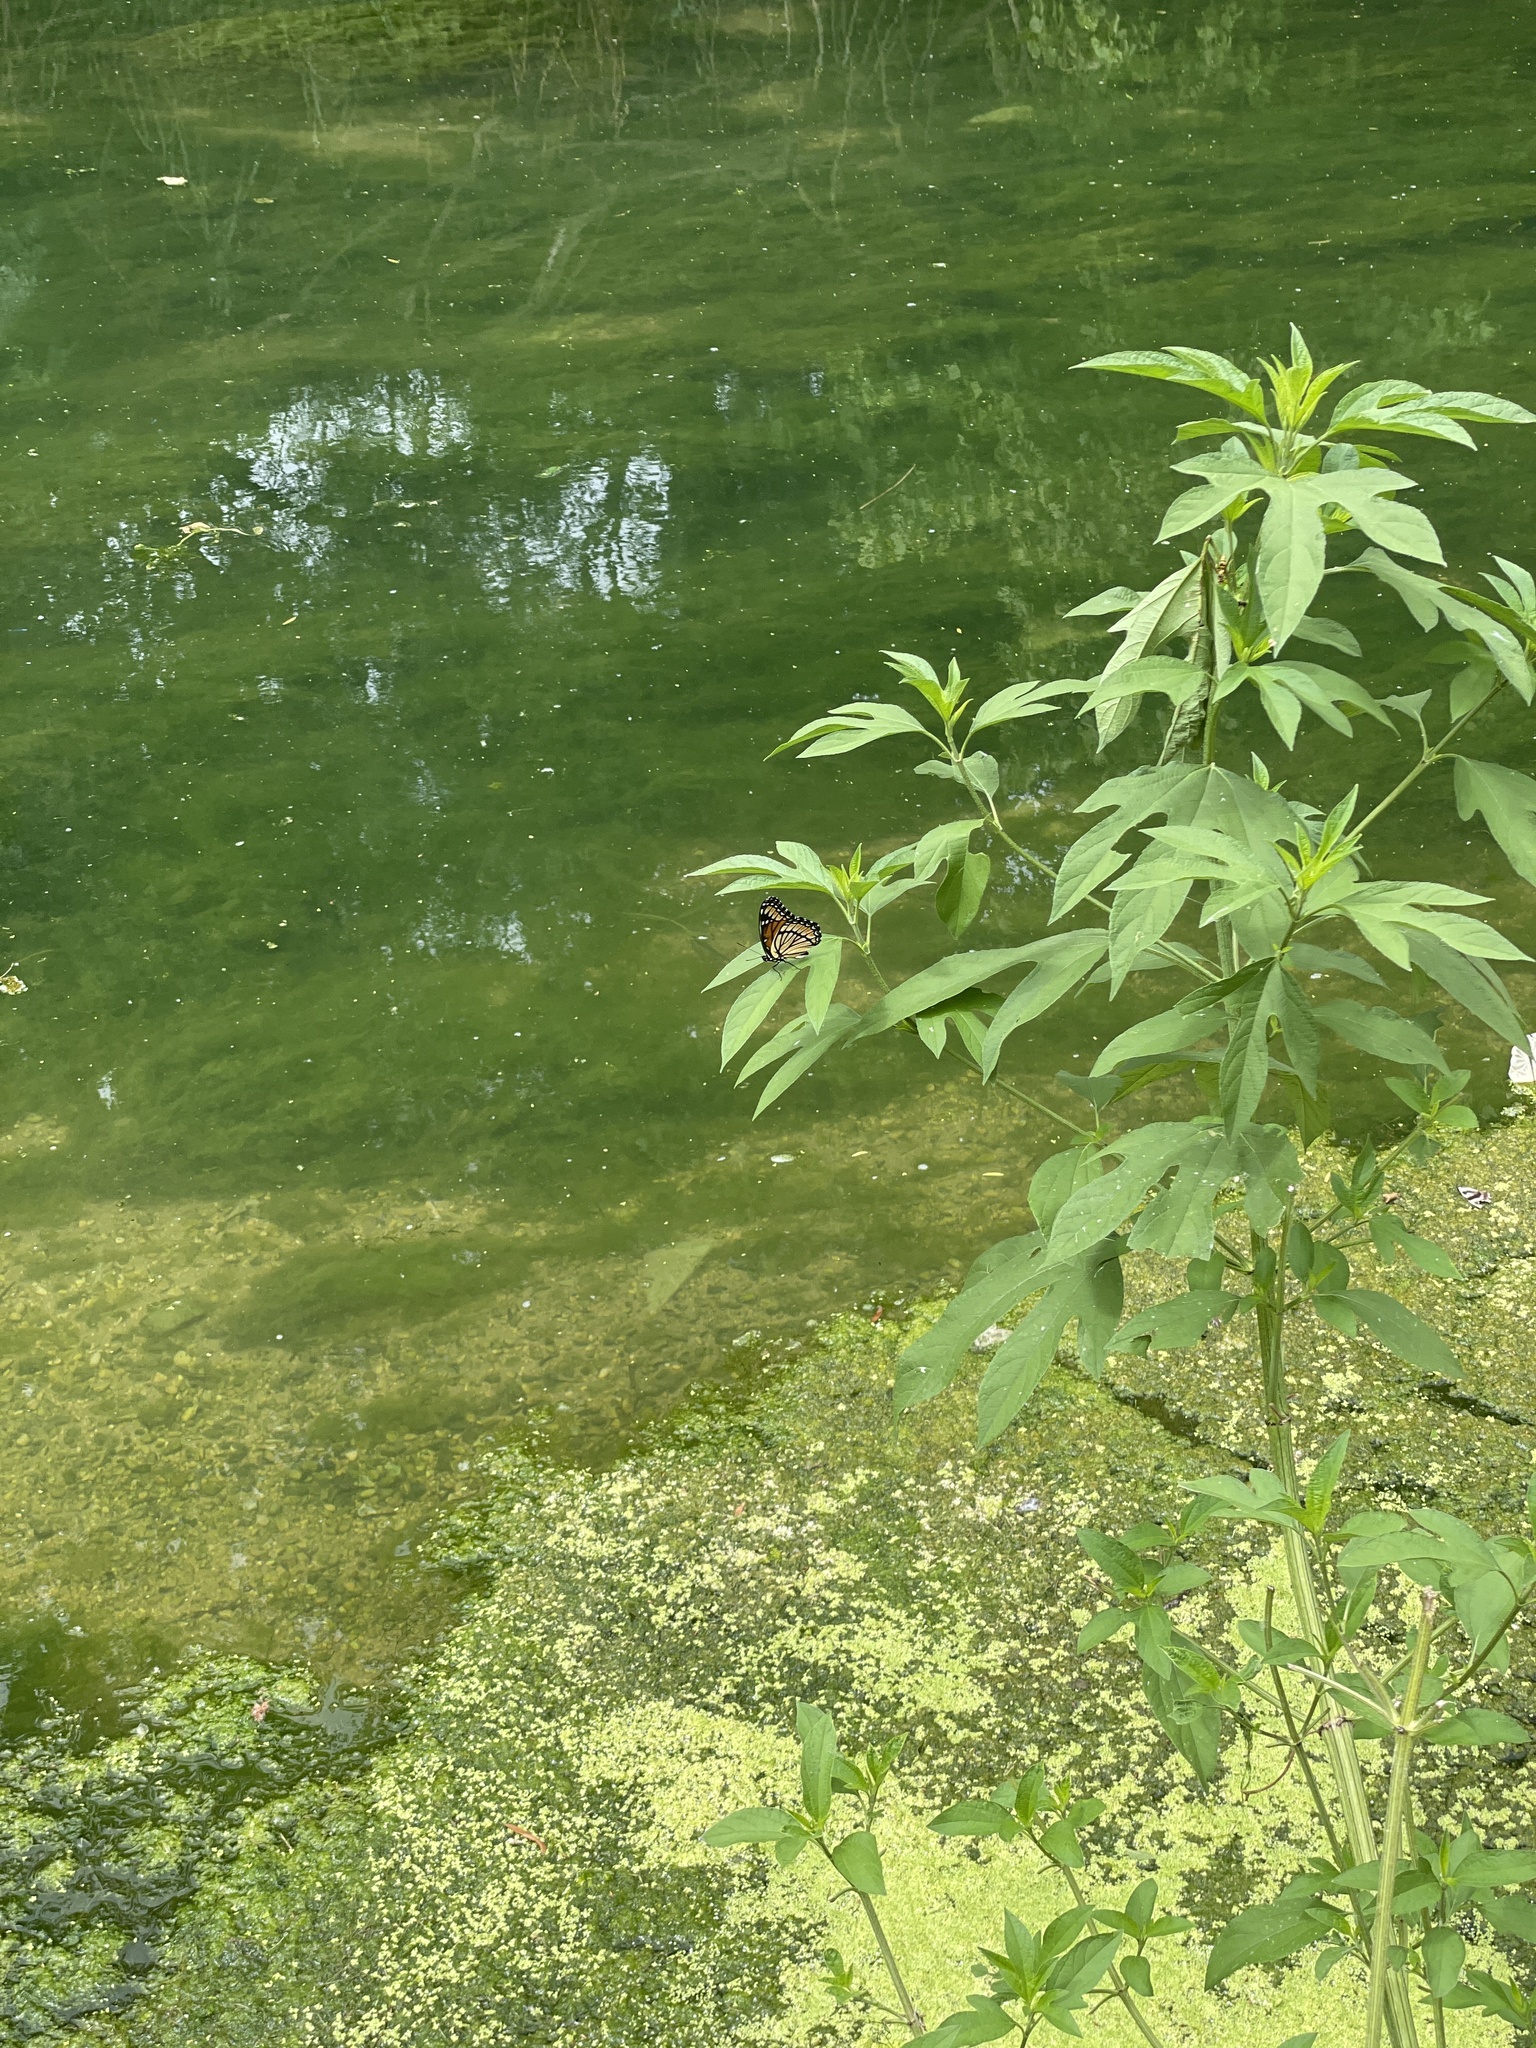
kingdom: Plantae
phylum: Tracheophyta
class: Magnoliopsida
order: Asterales
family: Asteraceae
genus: Ambrosia
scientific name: Ambrosia trifida
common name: Giant ragweed
